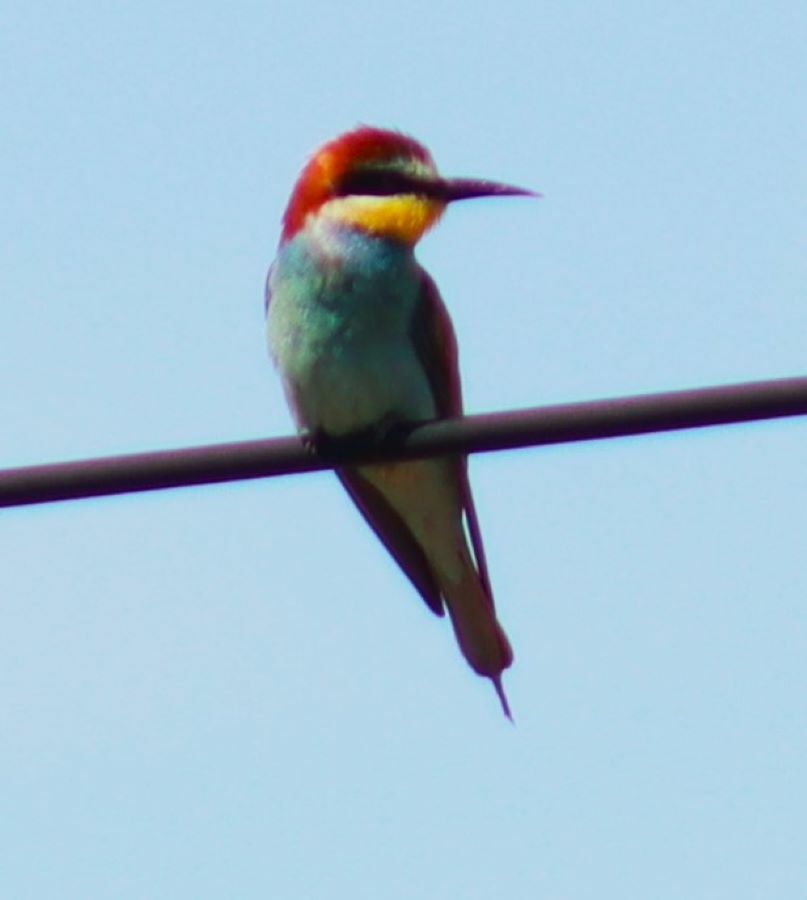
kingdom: Animalia
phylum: Chordata
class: Aves
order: Coraciiformes
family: Meropidae
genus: Merops
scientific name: Merops apiaster
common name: European bee-eater
